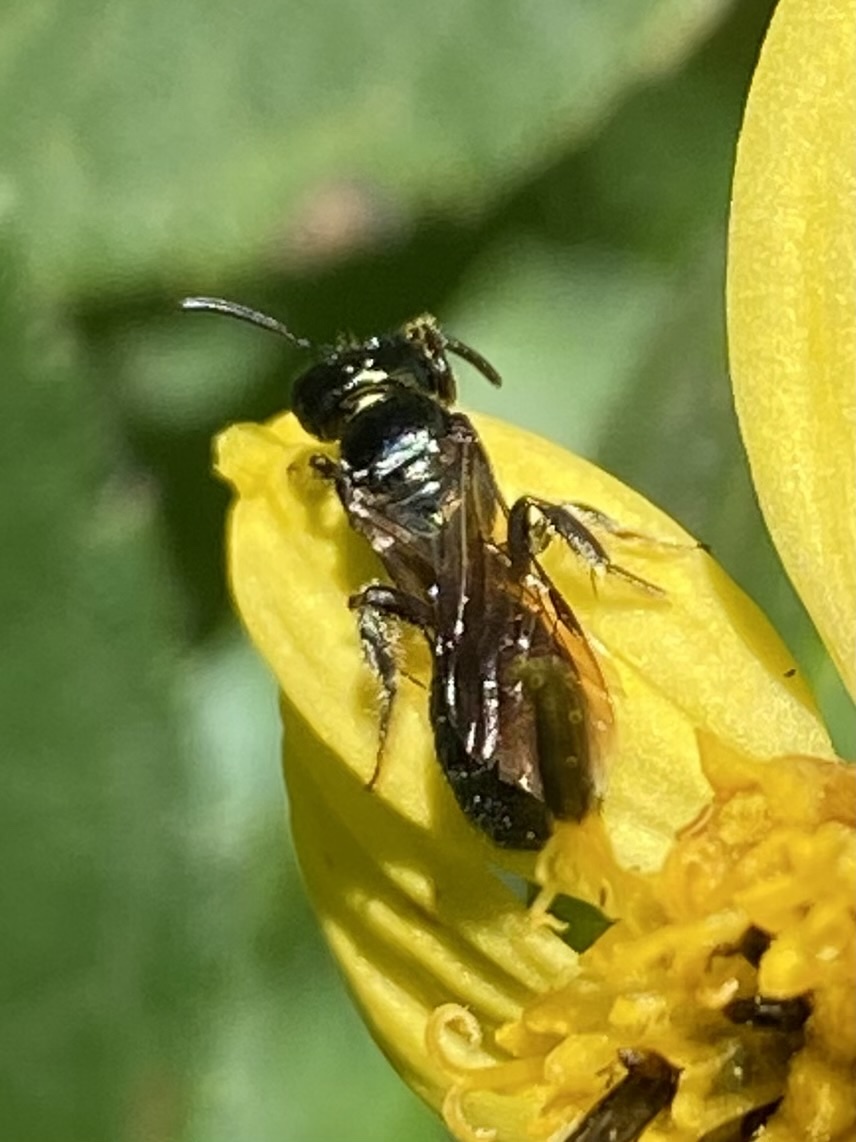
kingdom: Animalia
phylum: Arthropoda
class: Insecta
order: Hymenoptera
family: Apidae
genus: Ceratina
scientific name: Ceratina
